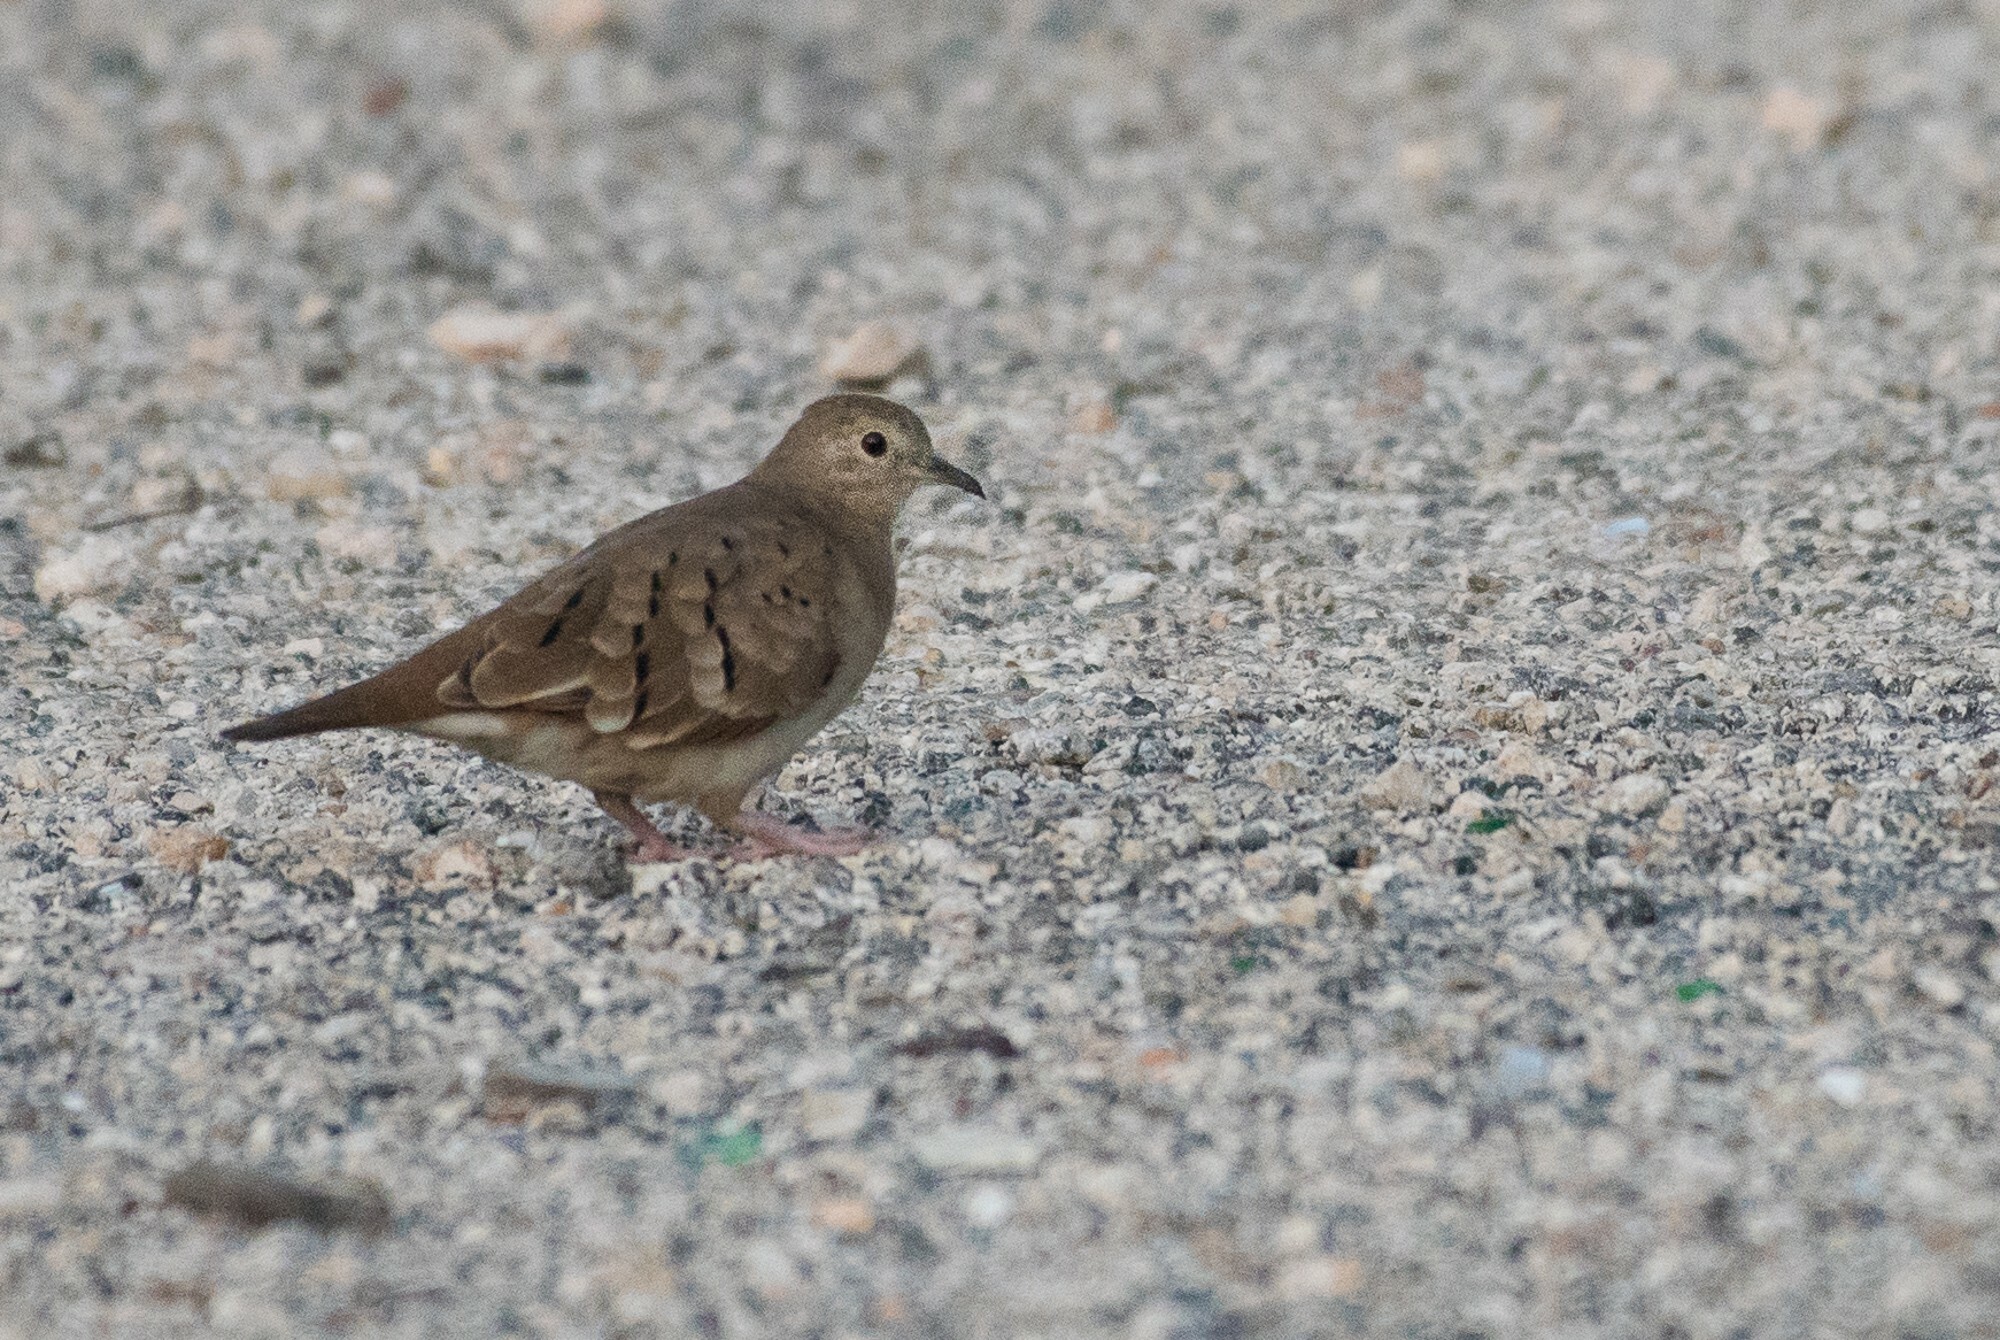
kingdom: Animalia
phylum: Chordata
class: Aves
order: Columbiformes
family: Columbidae
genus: Columbina
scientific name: Columbina talpacoti
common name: Ruddy ground dove
